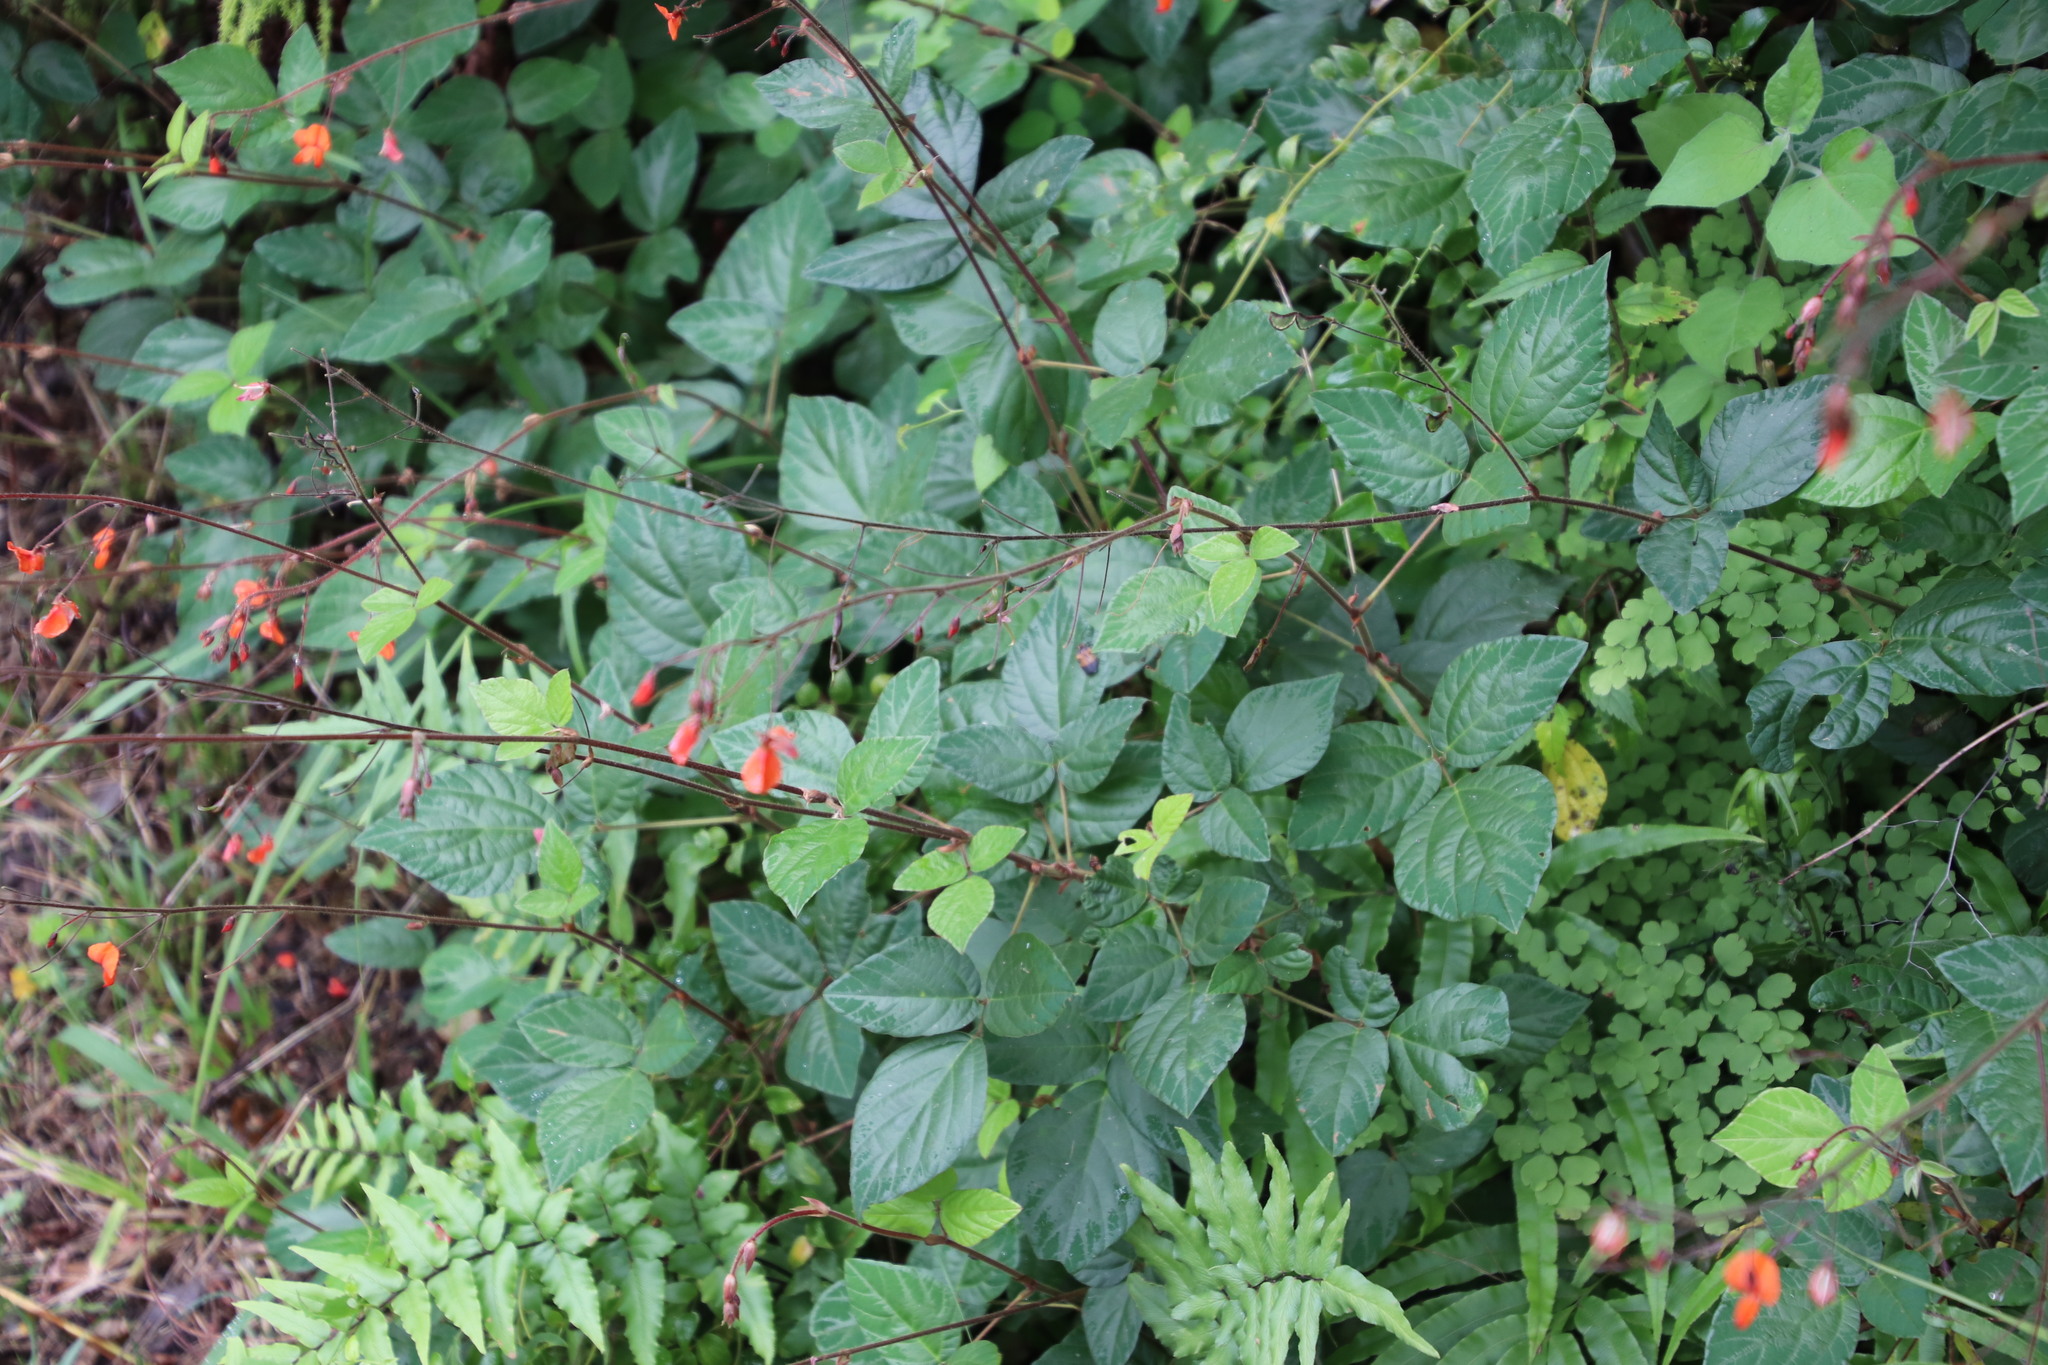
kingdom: Plantae
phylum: Tracheophyta
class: Magnoliopsida
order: Fabales
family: Fabaceae
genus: Hylodesmum
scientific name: Hylodesmum repandum
